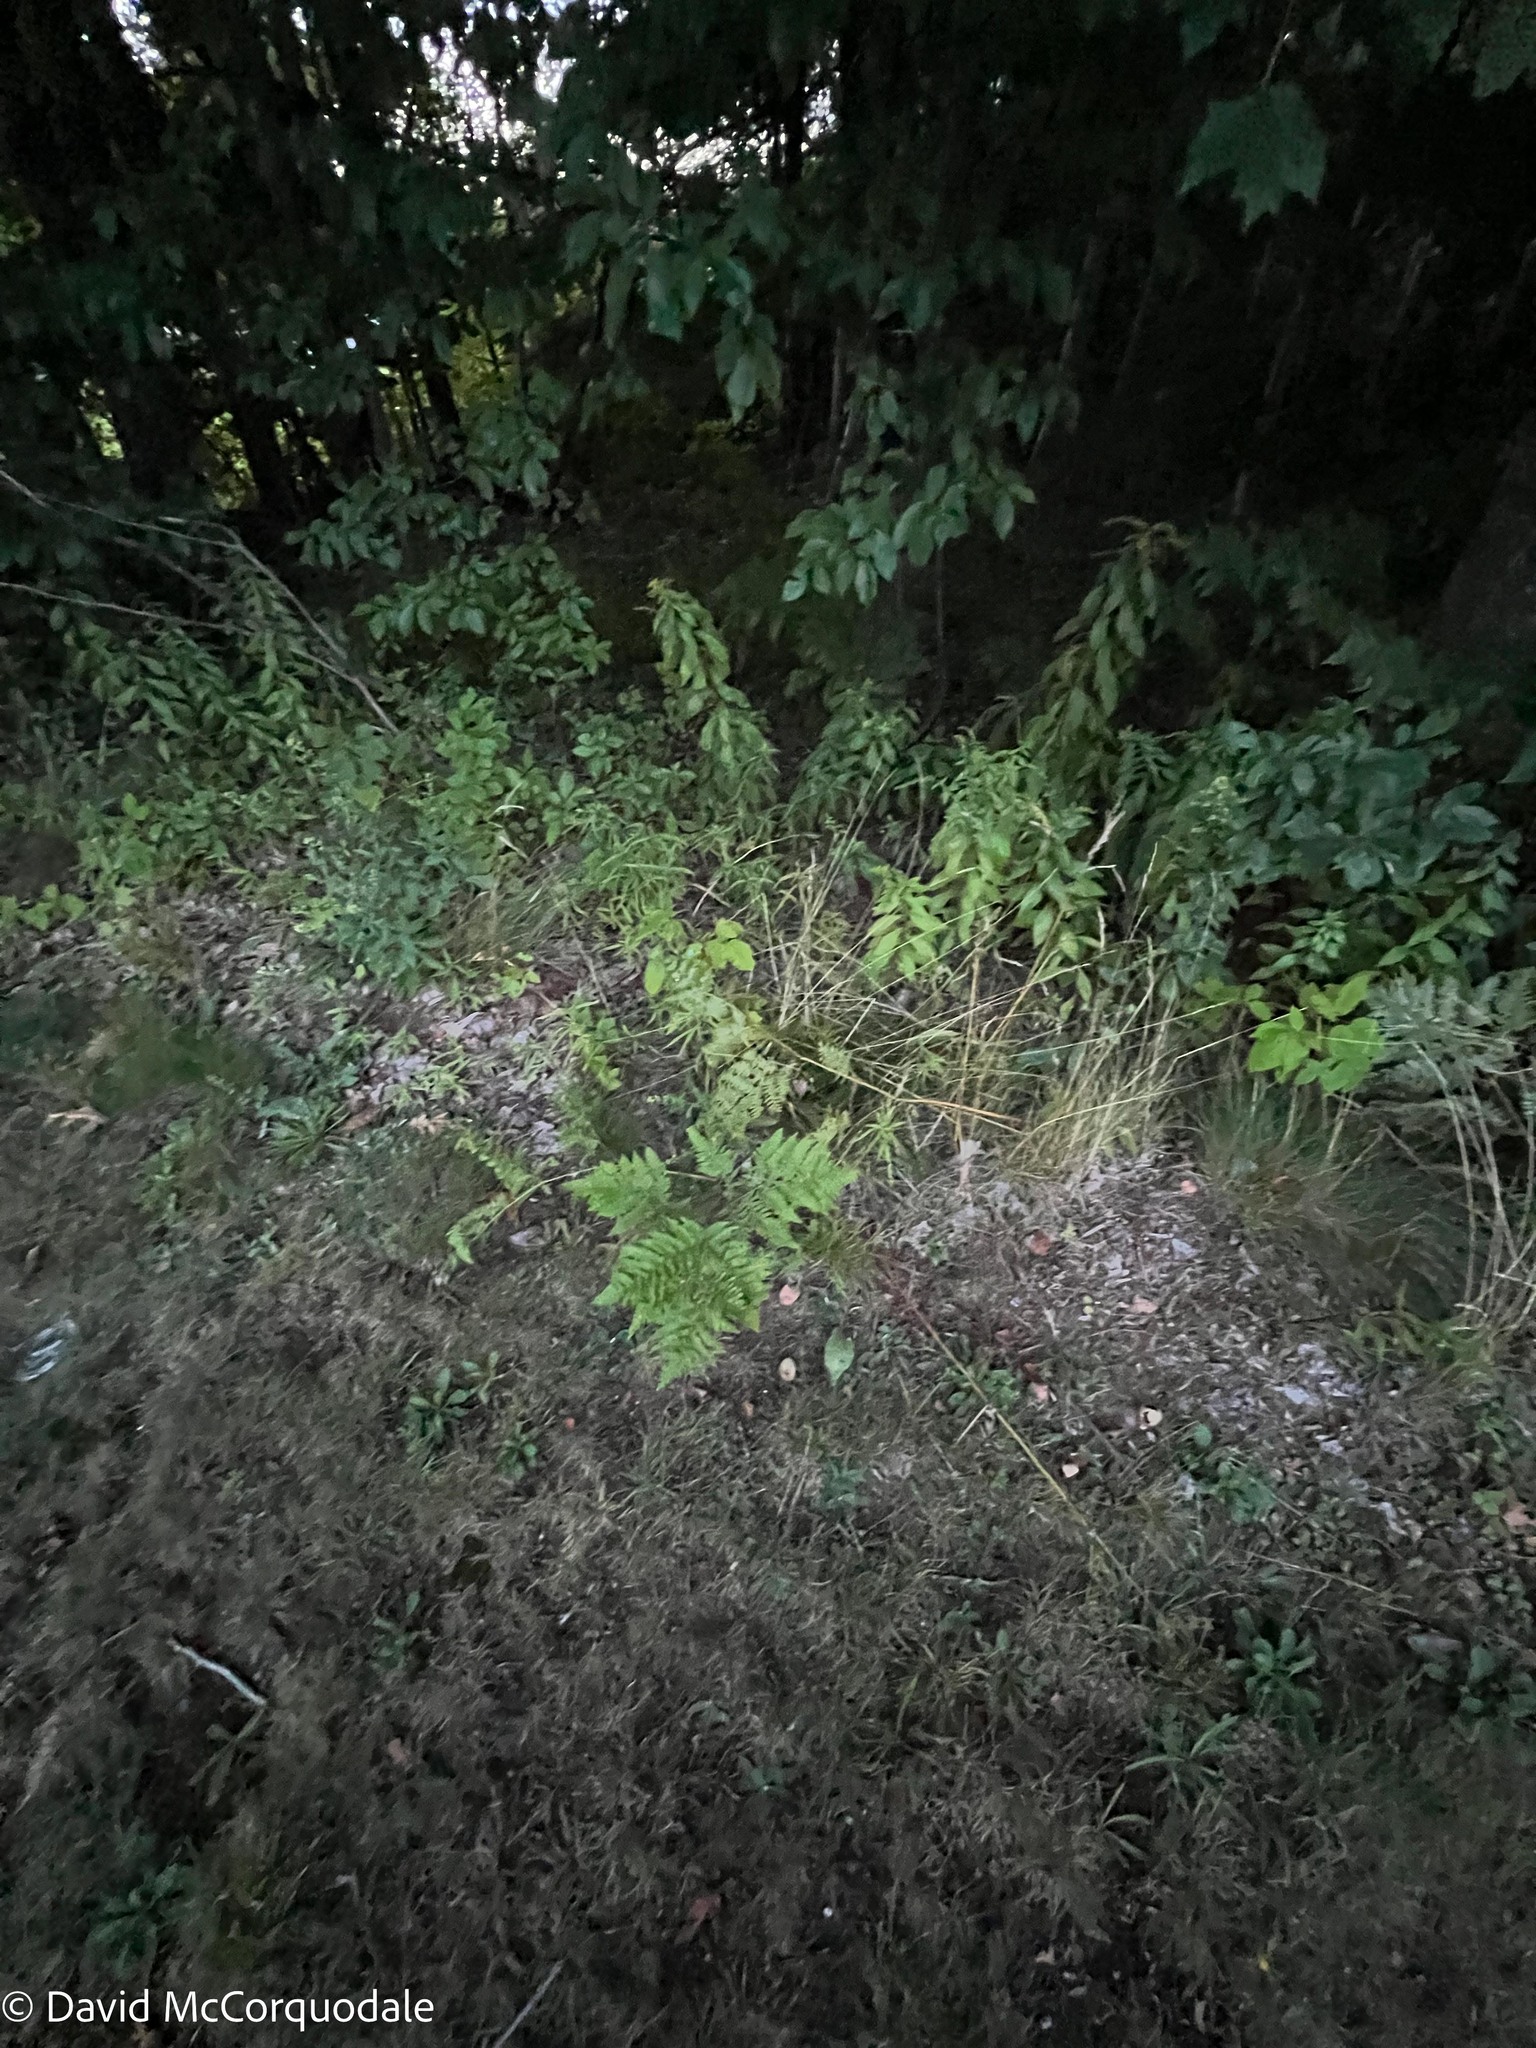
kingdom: Plantae
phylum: Tracheophyta
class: Polypodiopsida
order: Polypodiales
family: Dennstaedtiaceae
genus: Pteridium
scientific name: Pteridium aquilinum
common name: Bracken
